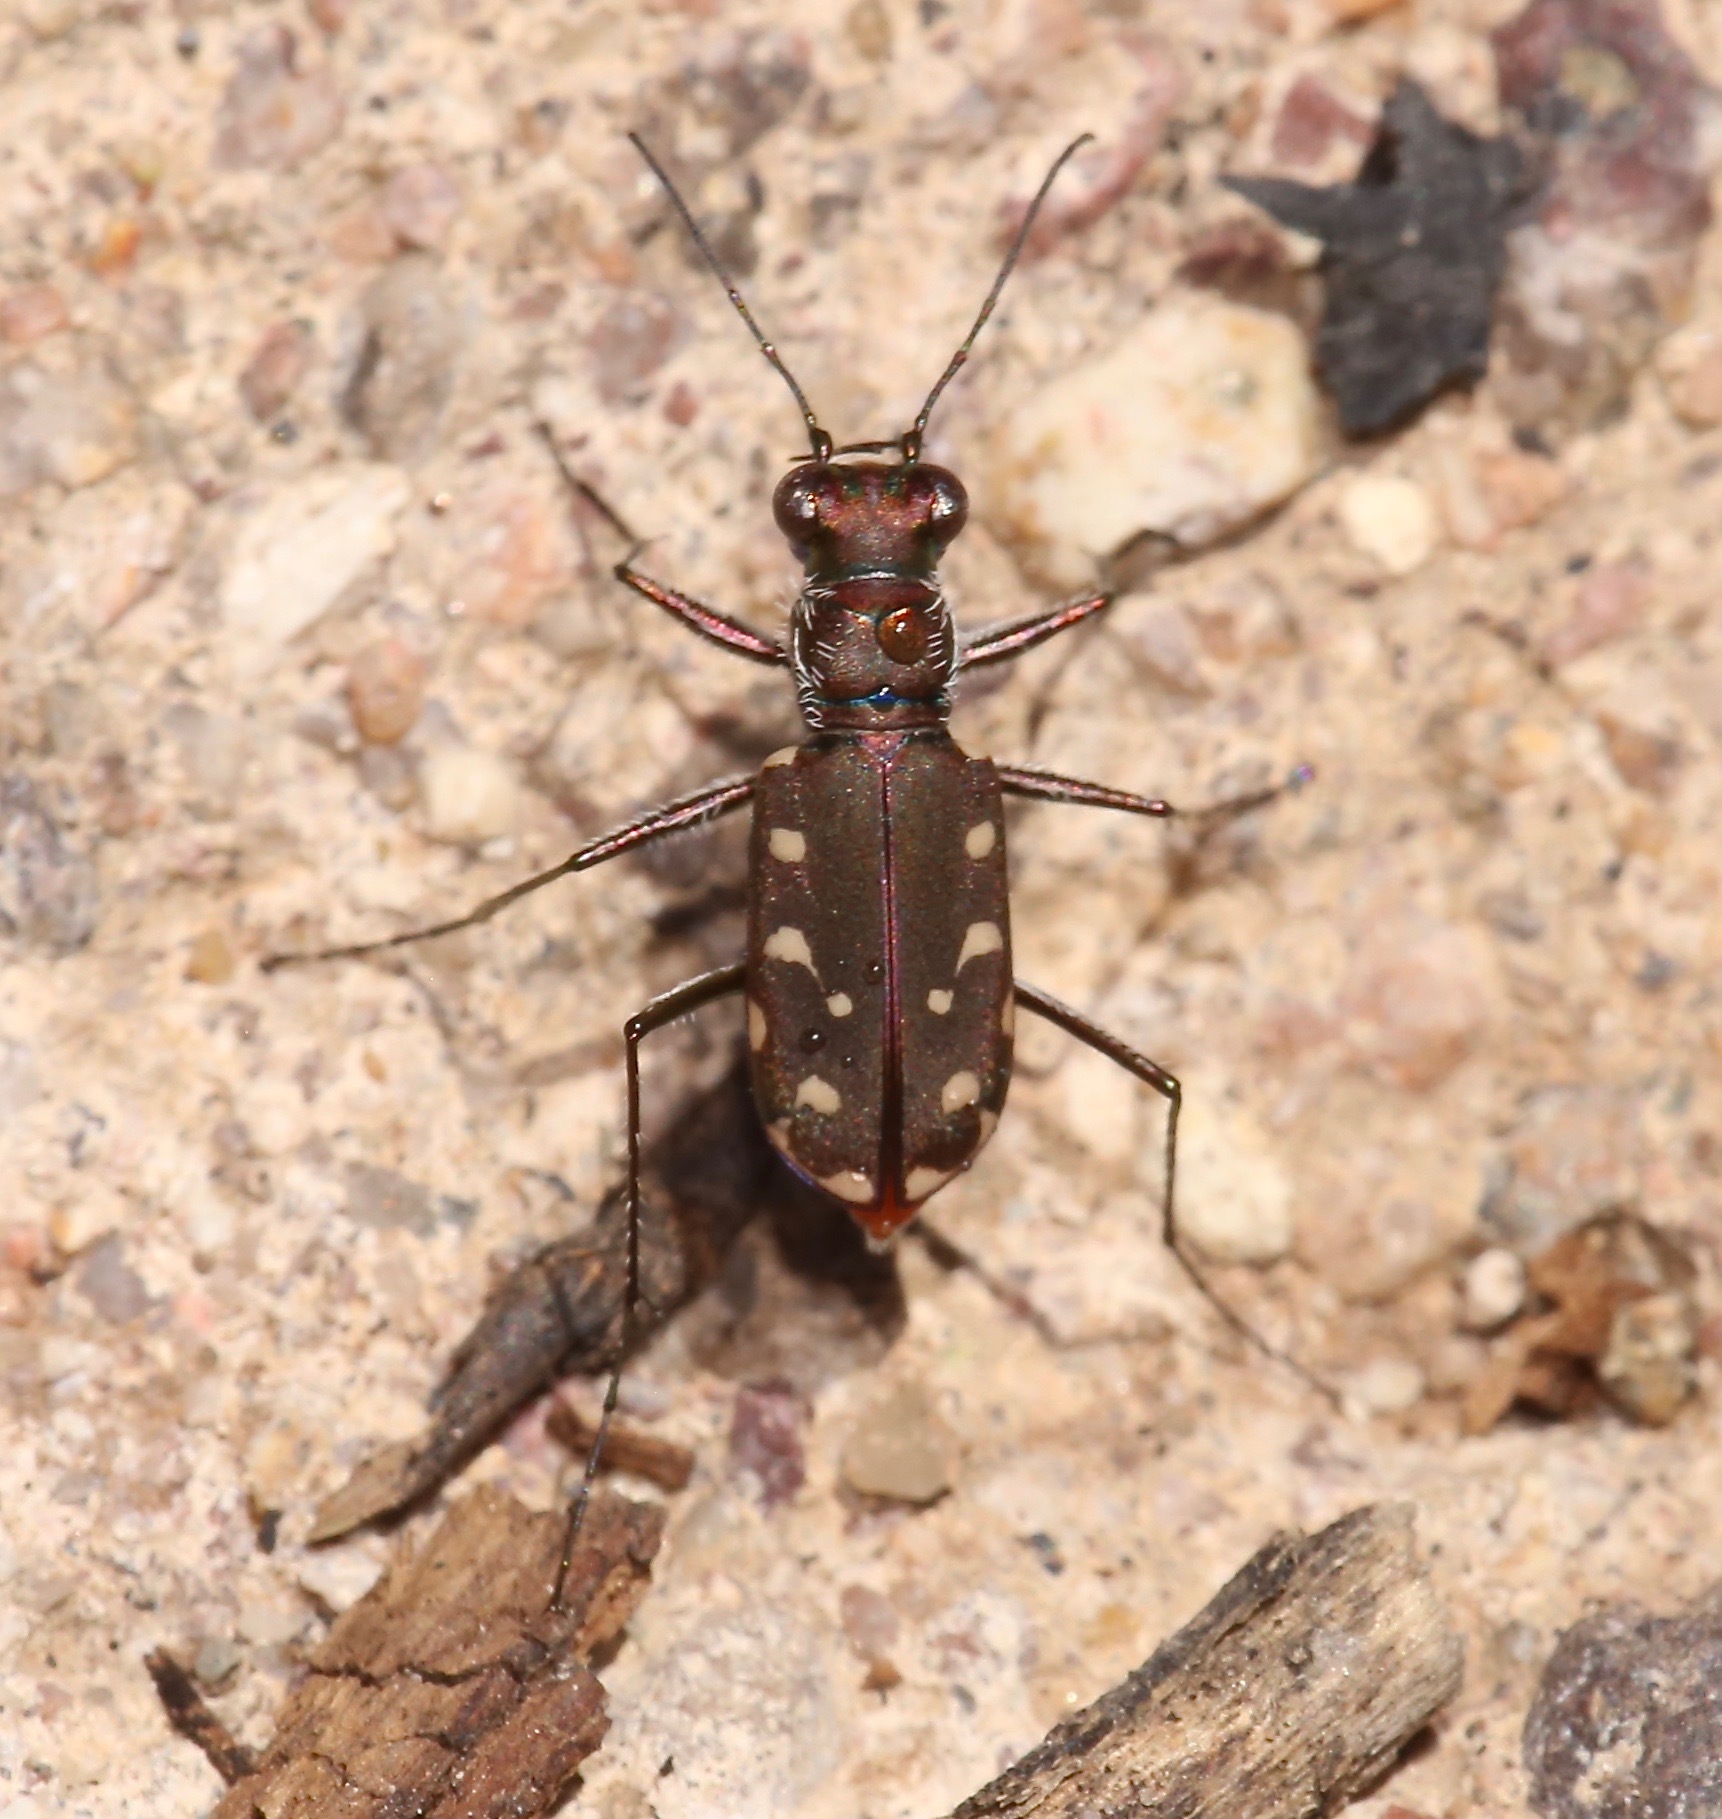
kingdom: Animalia
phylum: Arthropoda
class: Insecta
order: Coleoptera
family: Carabidae
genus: Cicindela
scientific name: Cicindela sedecimpunctata
